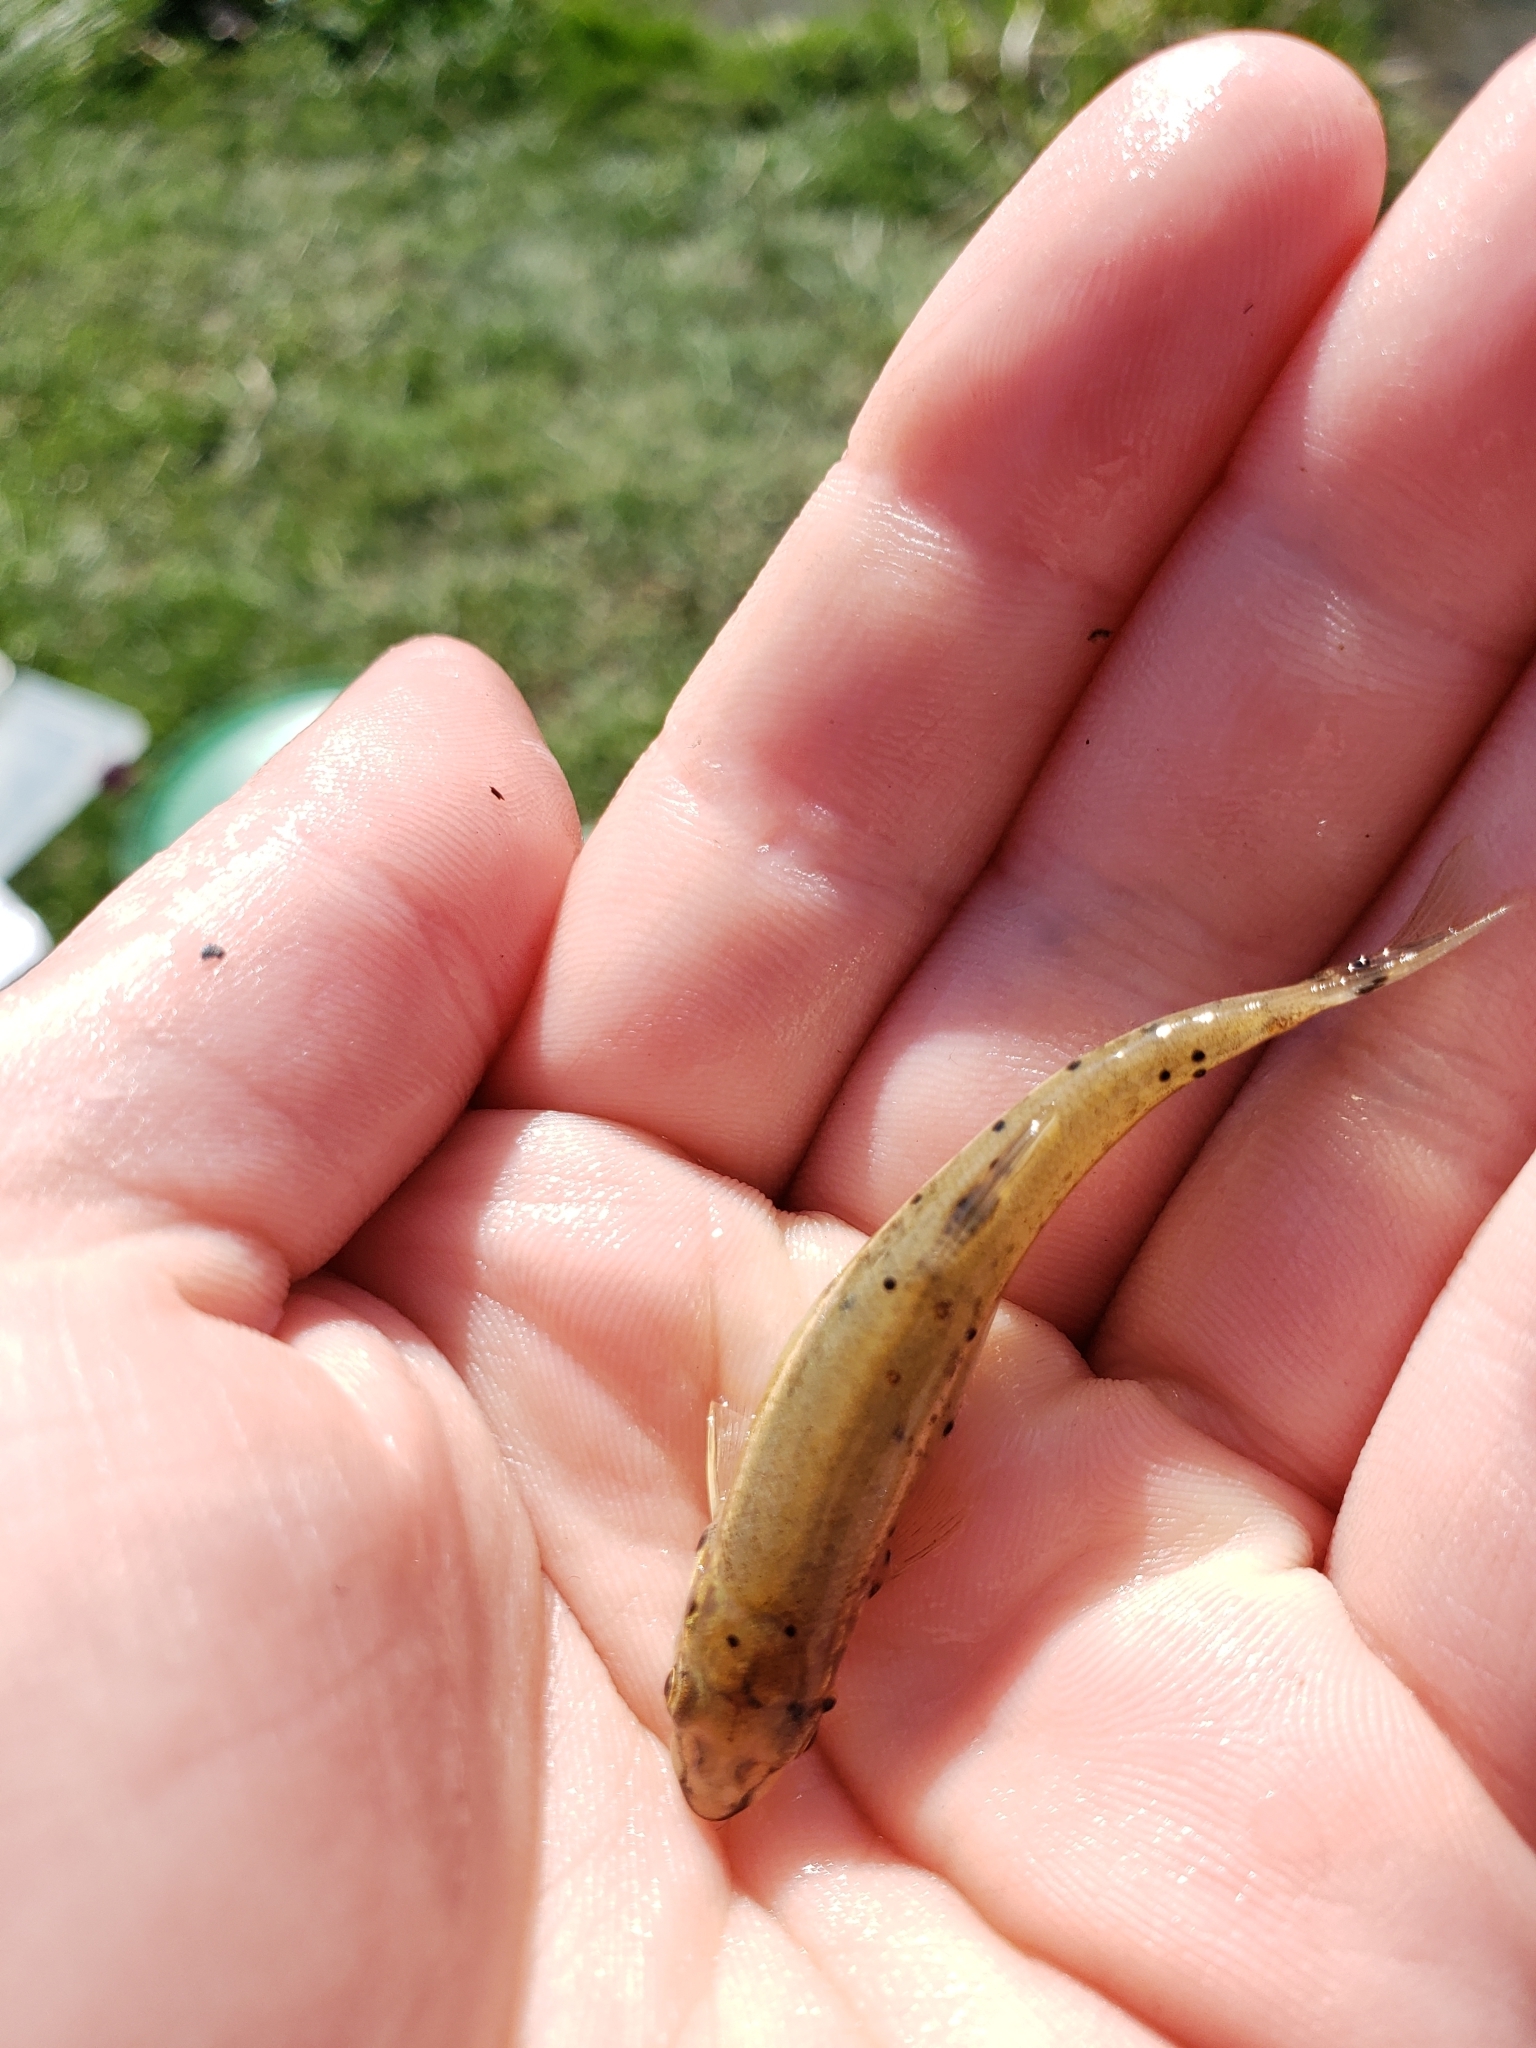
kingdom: Animalia
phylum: Chordata
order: Cypriniformes
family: Cyprinidae
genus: Rhinichthys
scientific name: Rhinichthys atratulus
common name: Eastern blacknose dace
